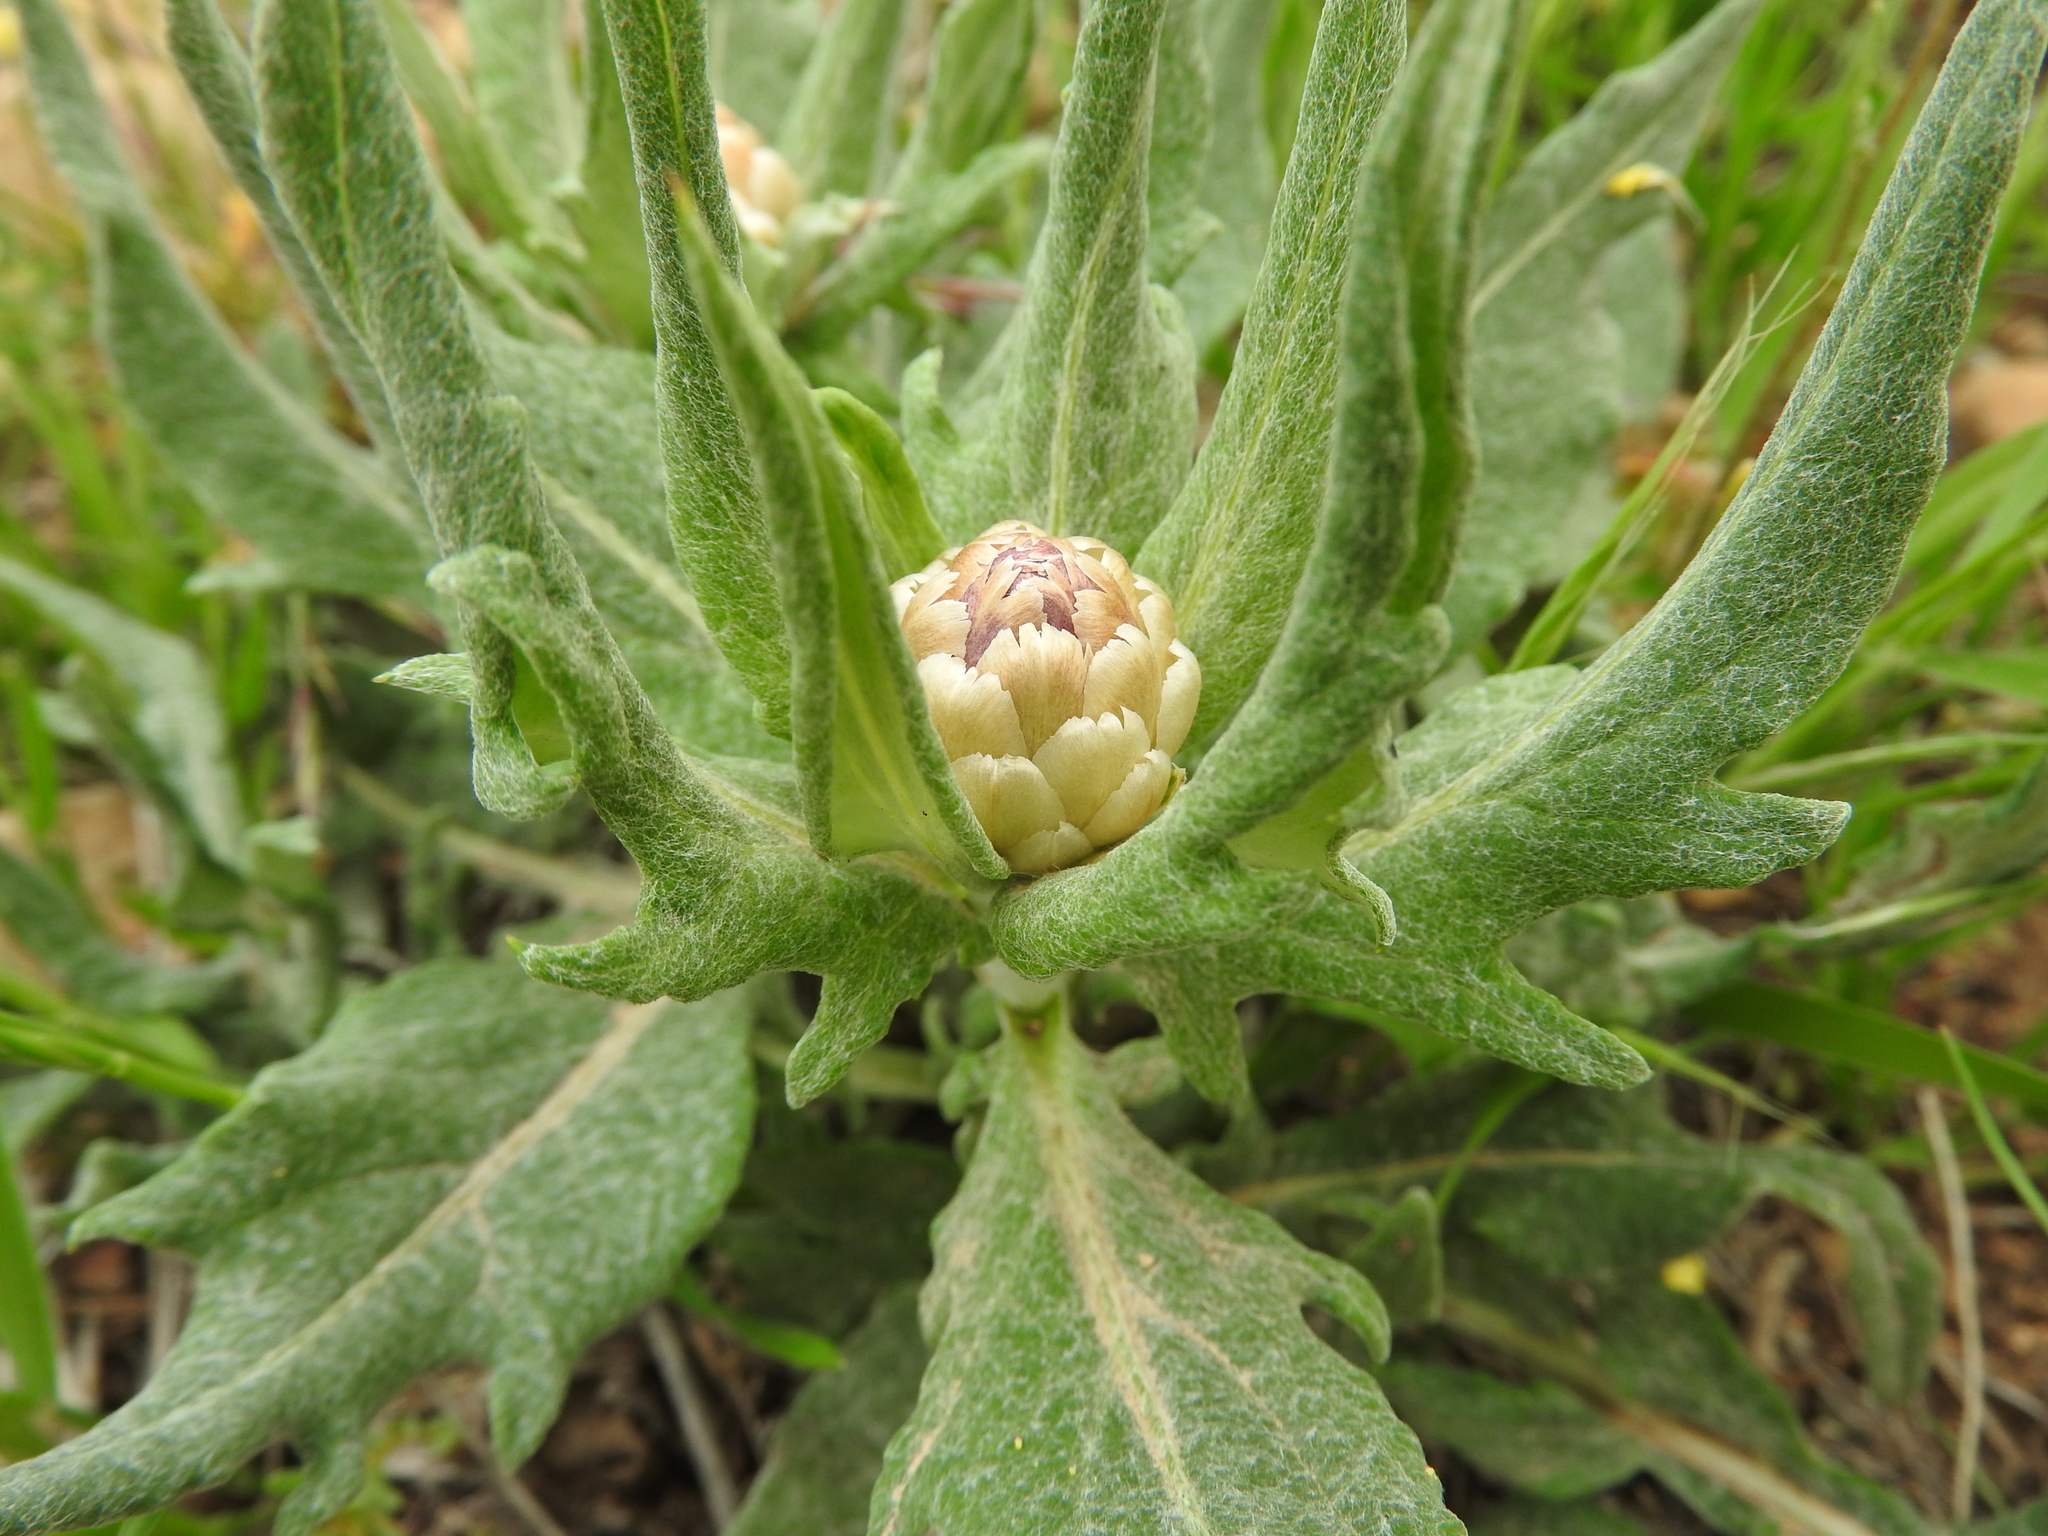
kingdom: Plantae
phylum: Tracheophyta
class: Magnoliopsida
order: Asterales
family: Asteraceae
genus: Leuzea
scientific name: Leuzea conifera
